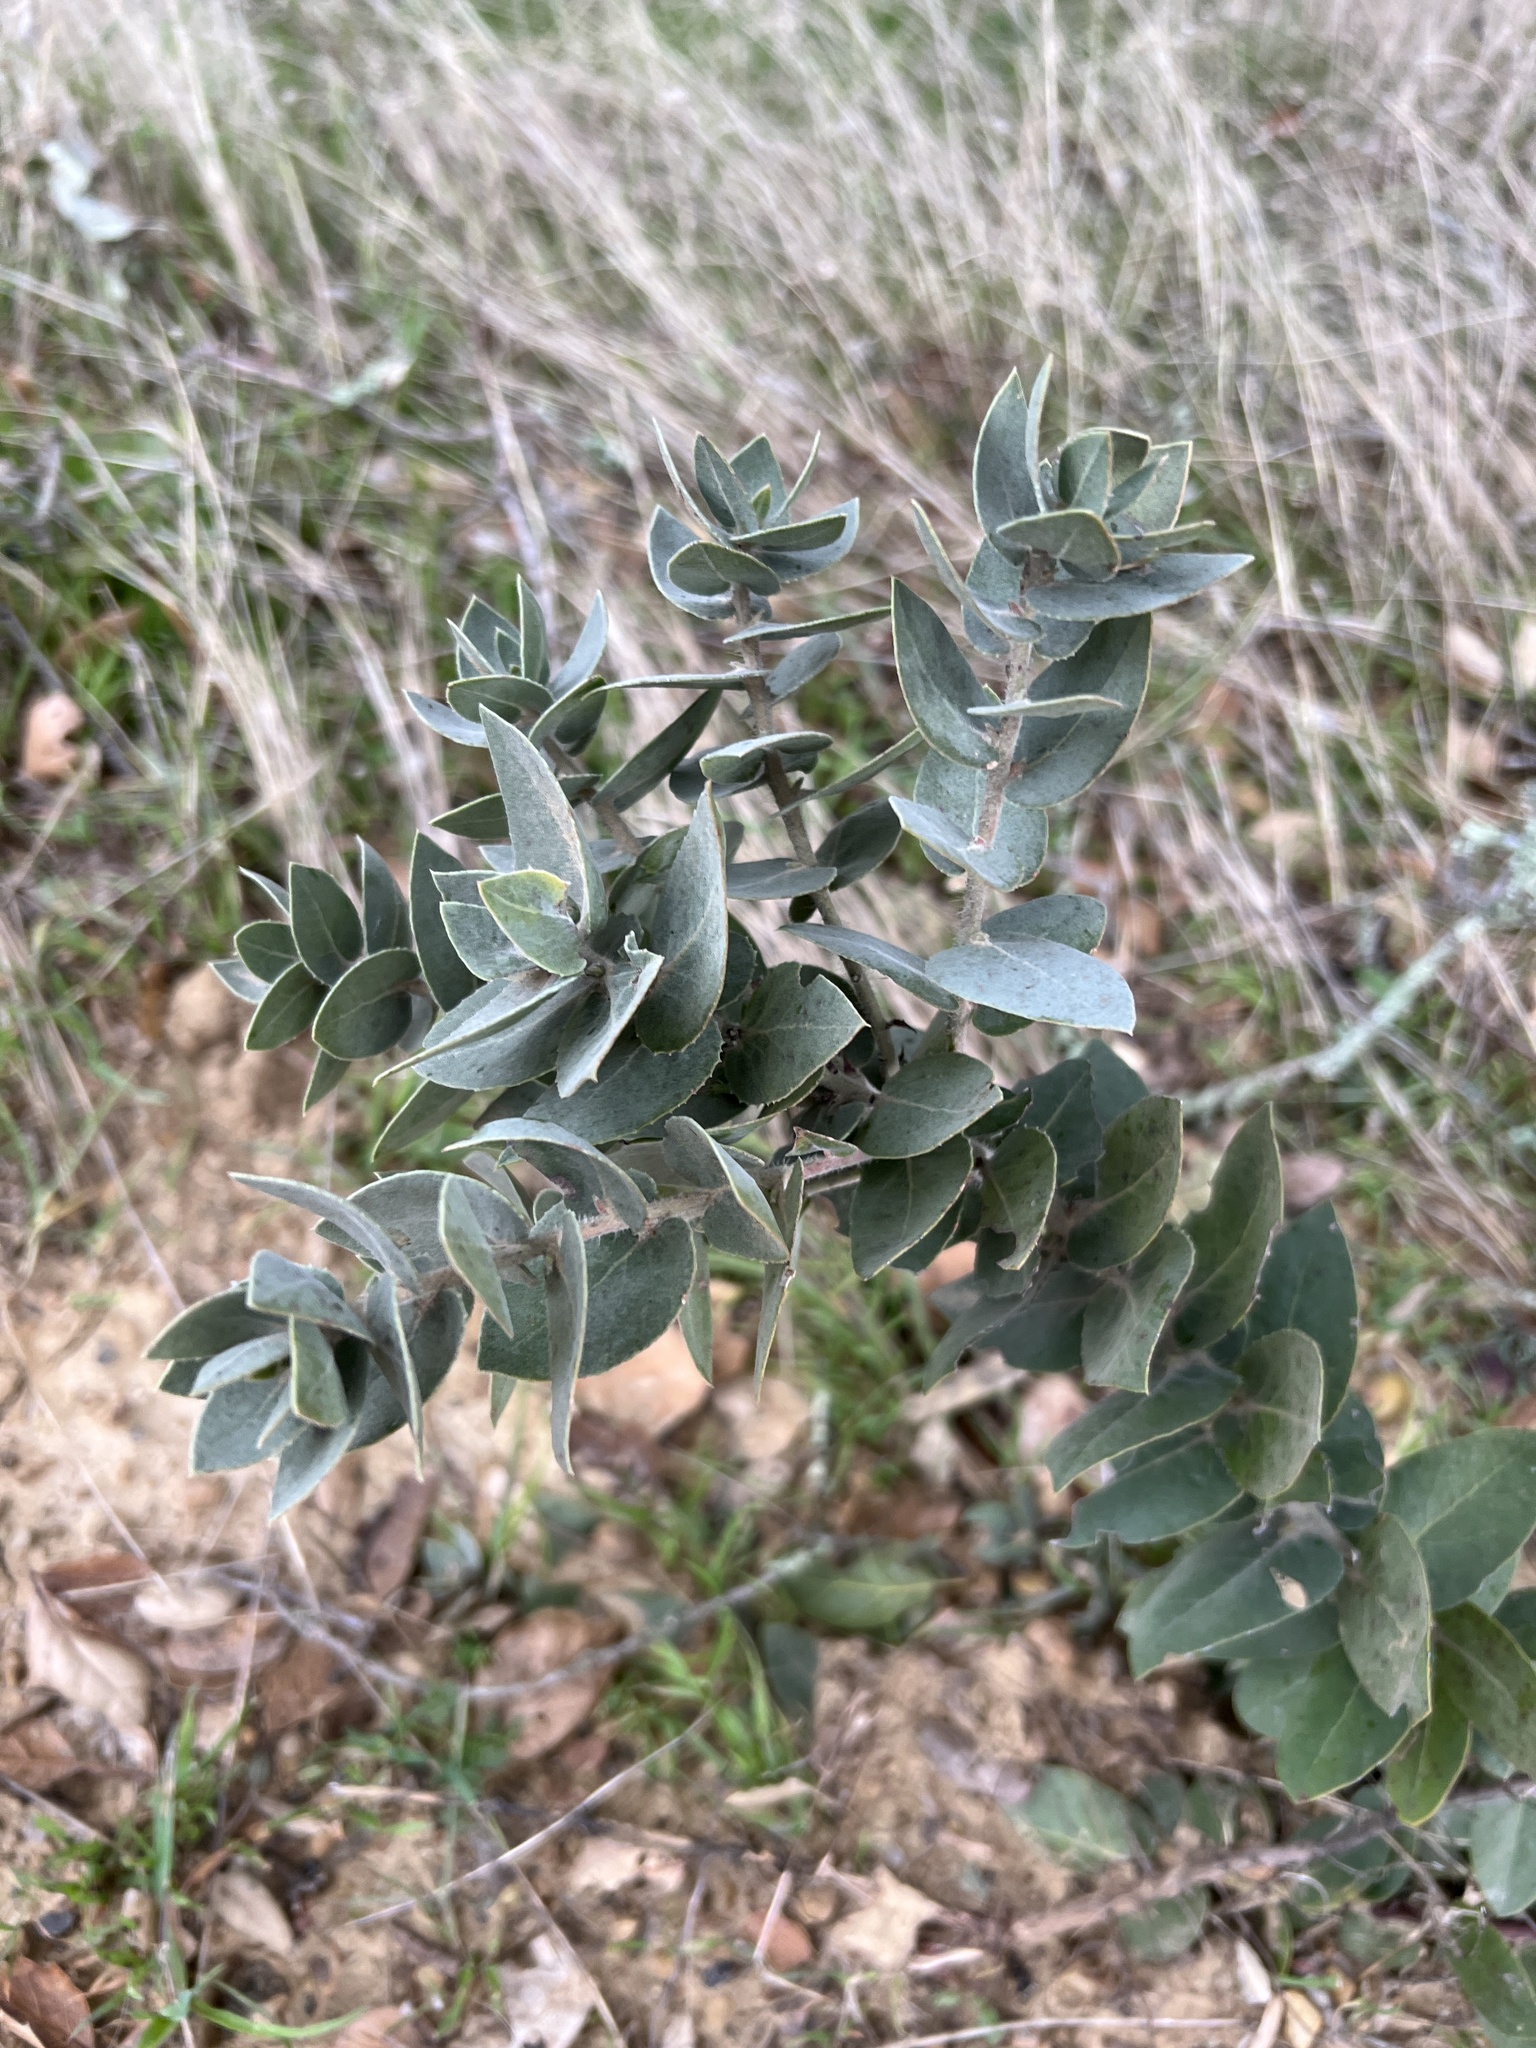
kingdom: Plantae
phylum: Tracheophyta
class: Magnoliopsida
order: Ericales
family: Ericaceae
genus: Arctostaphylos
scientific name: Arctostaphylos auriculata
